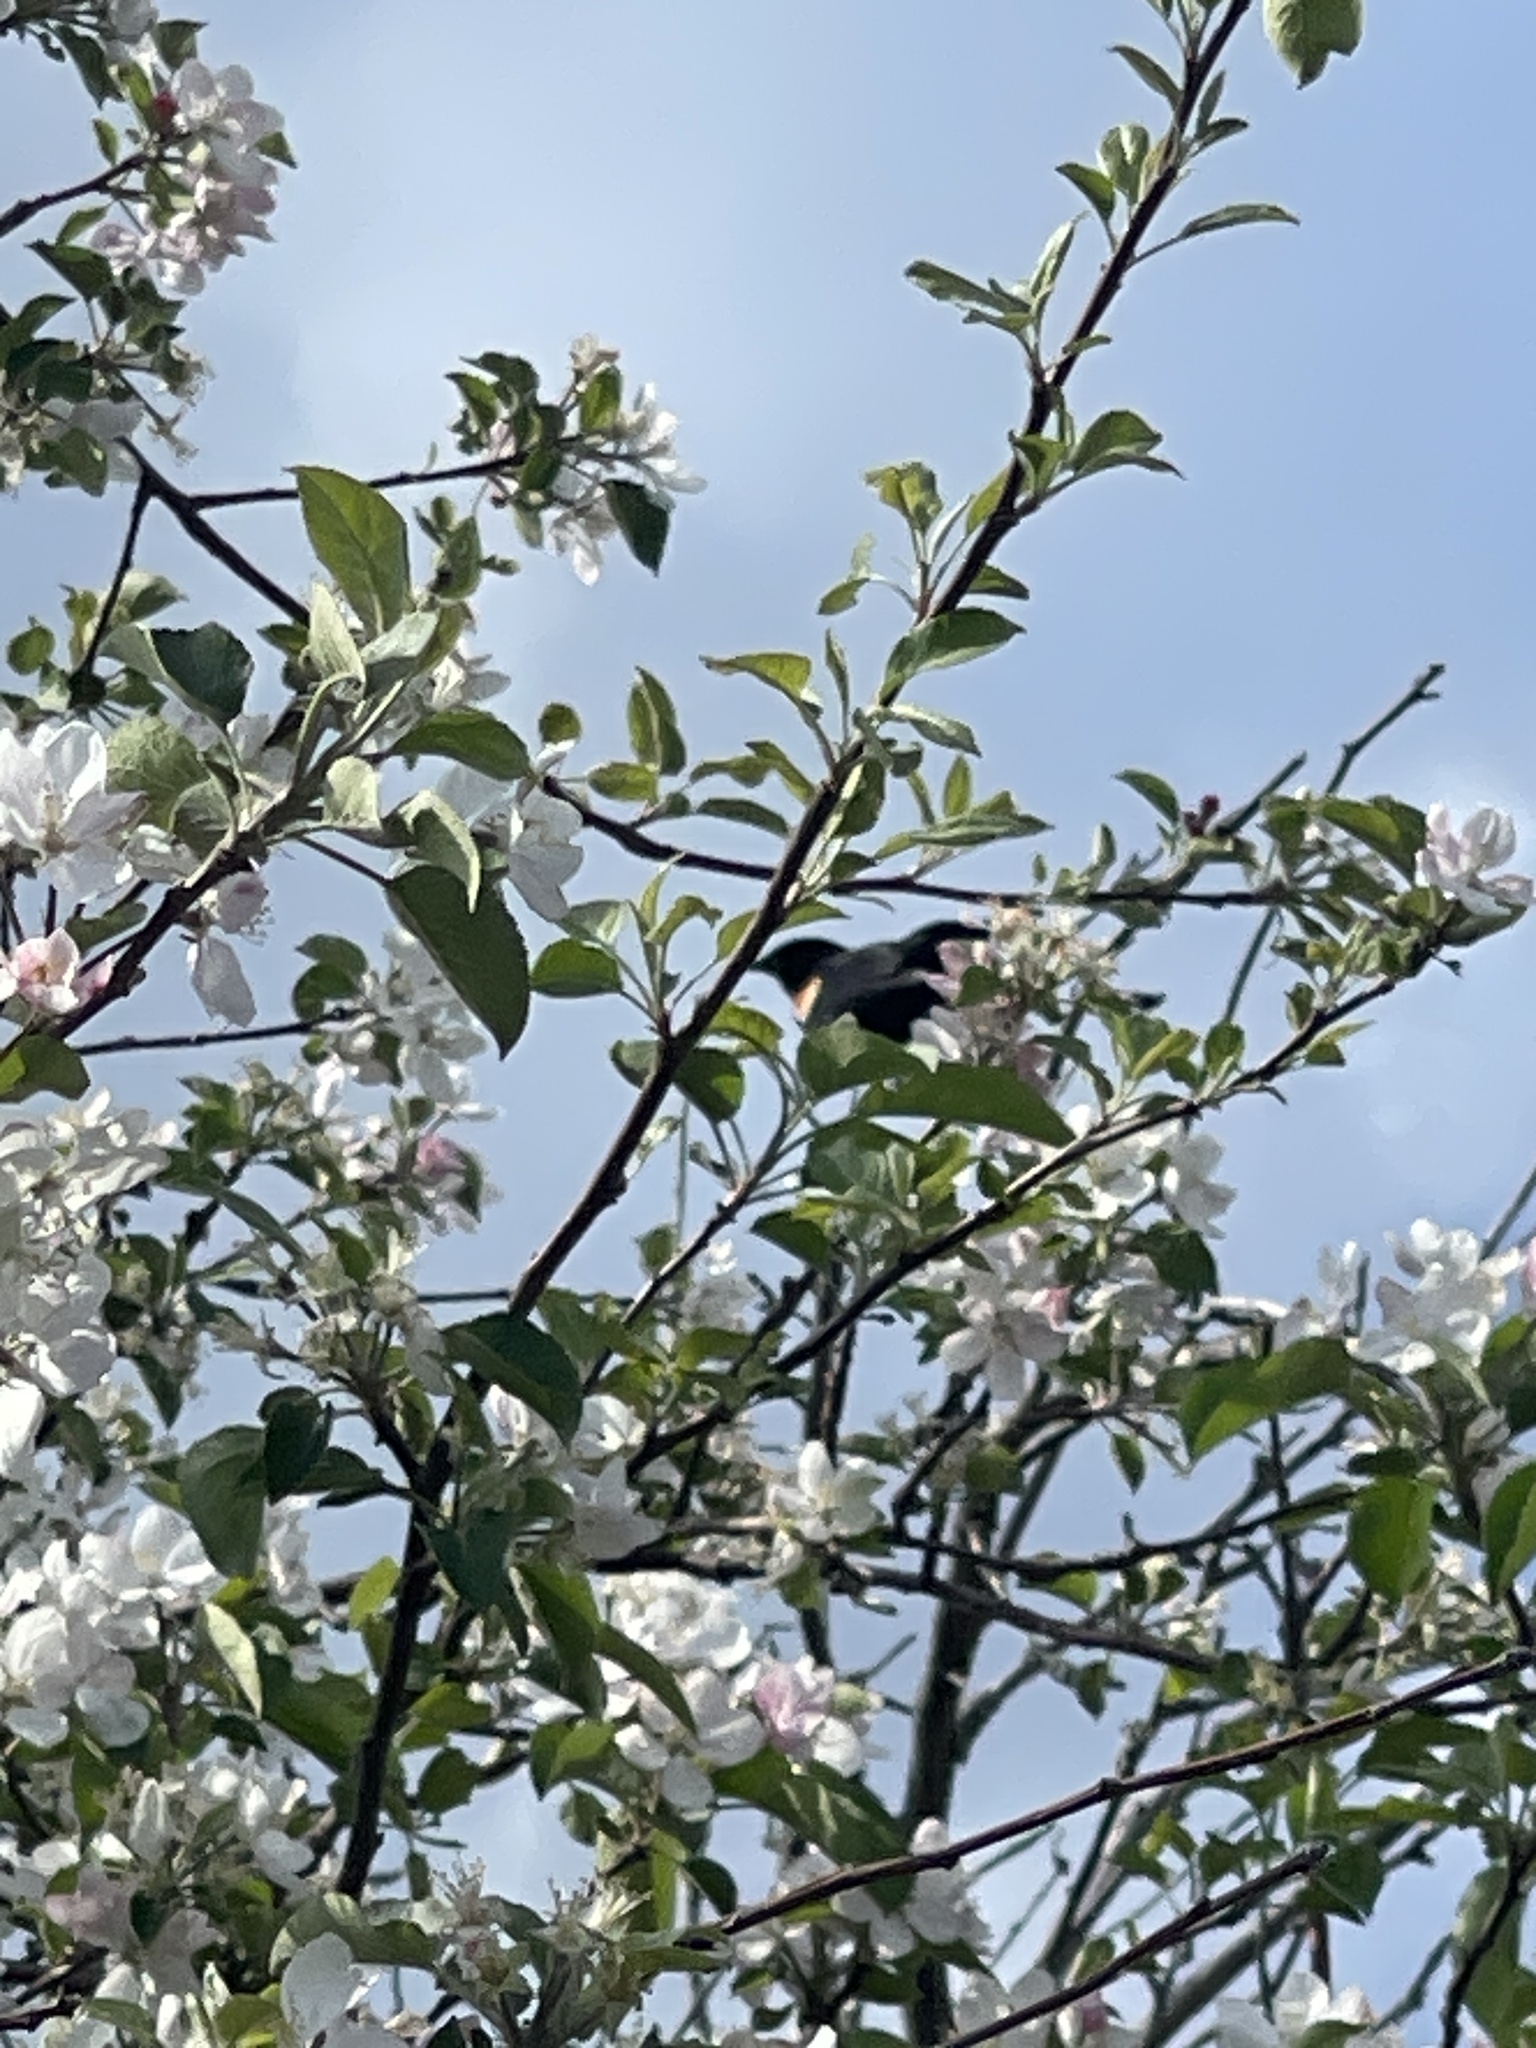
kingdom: Animalia
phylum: Chordata
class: Aves
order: Passeriformes
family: Icteridae
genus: Agelaius
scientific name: Agelaius phoeniceus
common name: Red-winged blackbird
